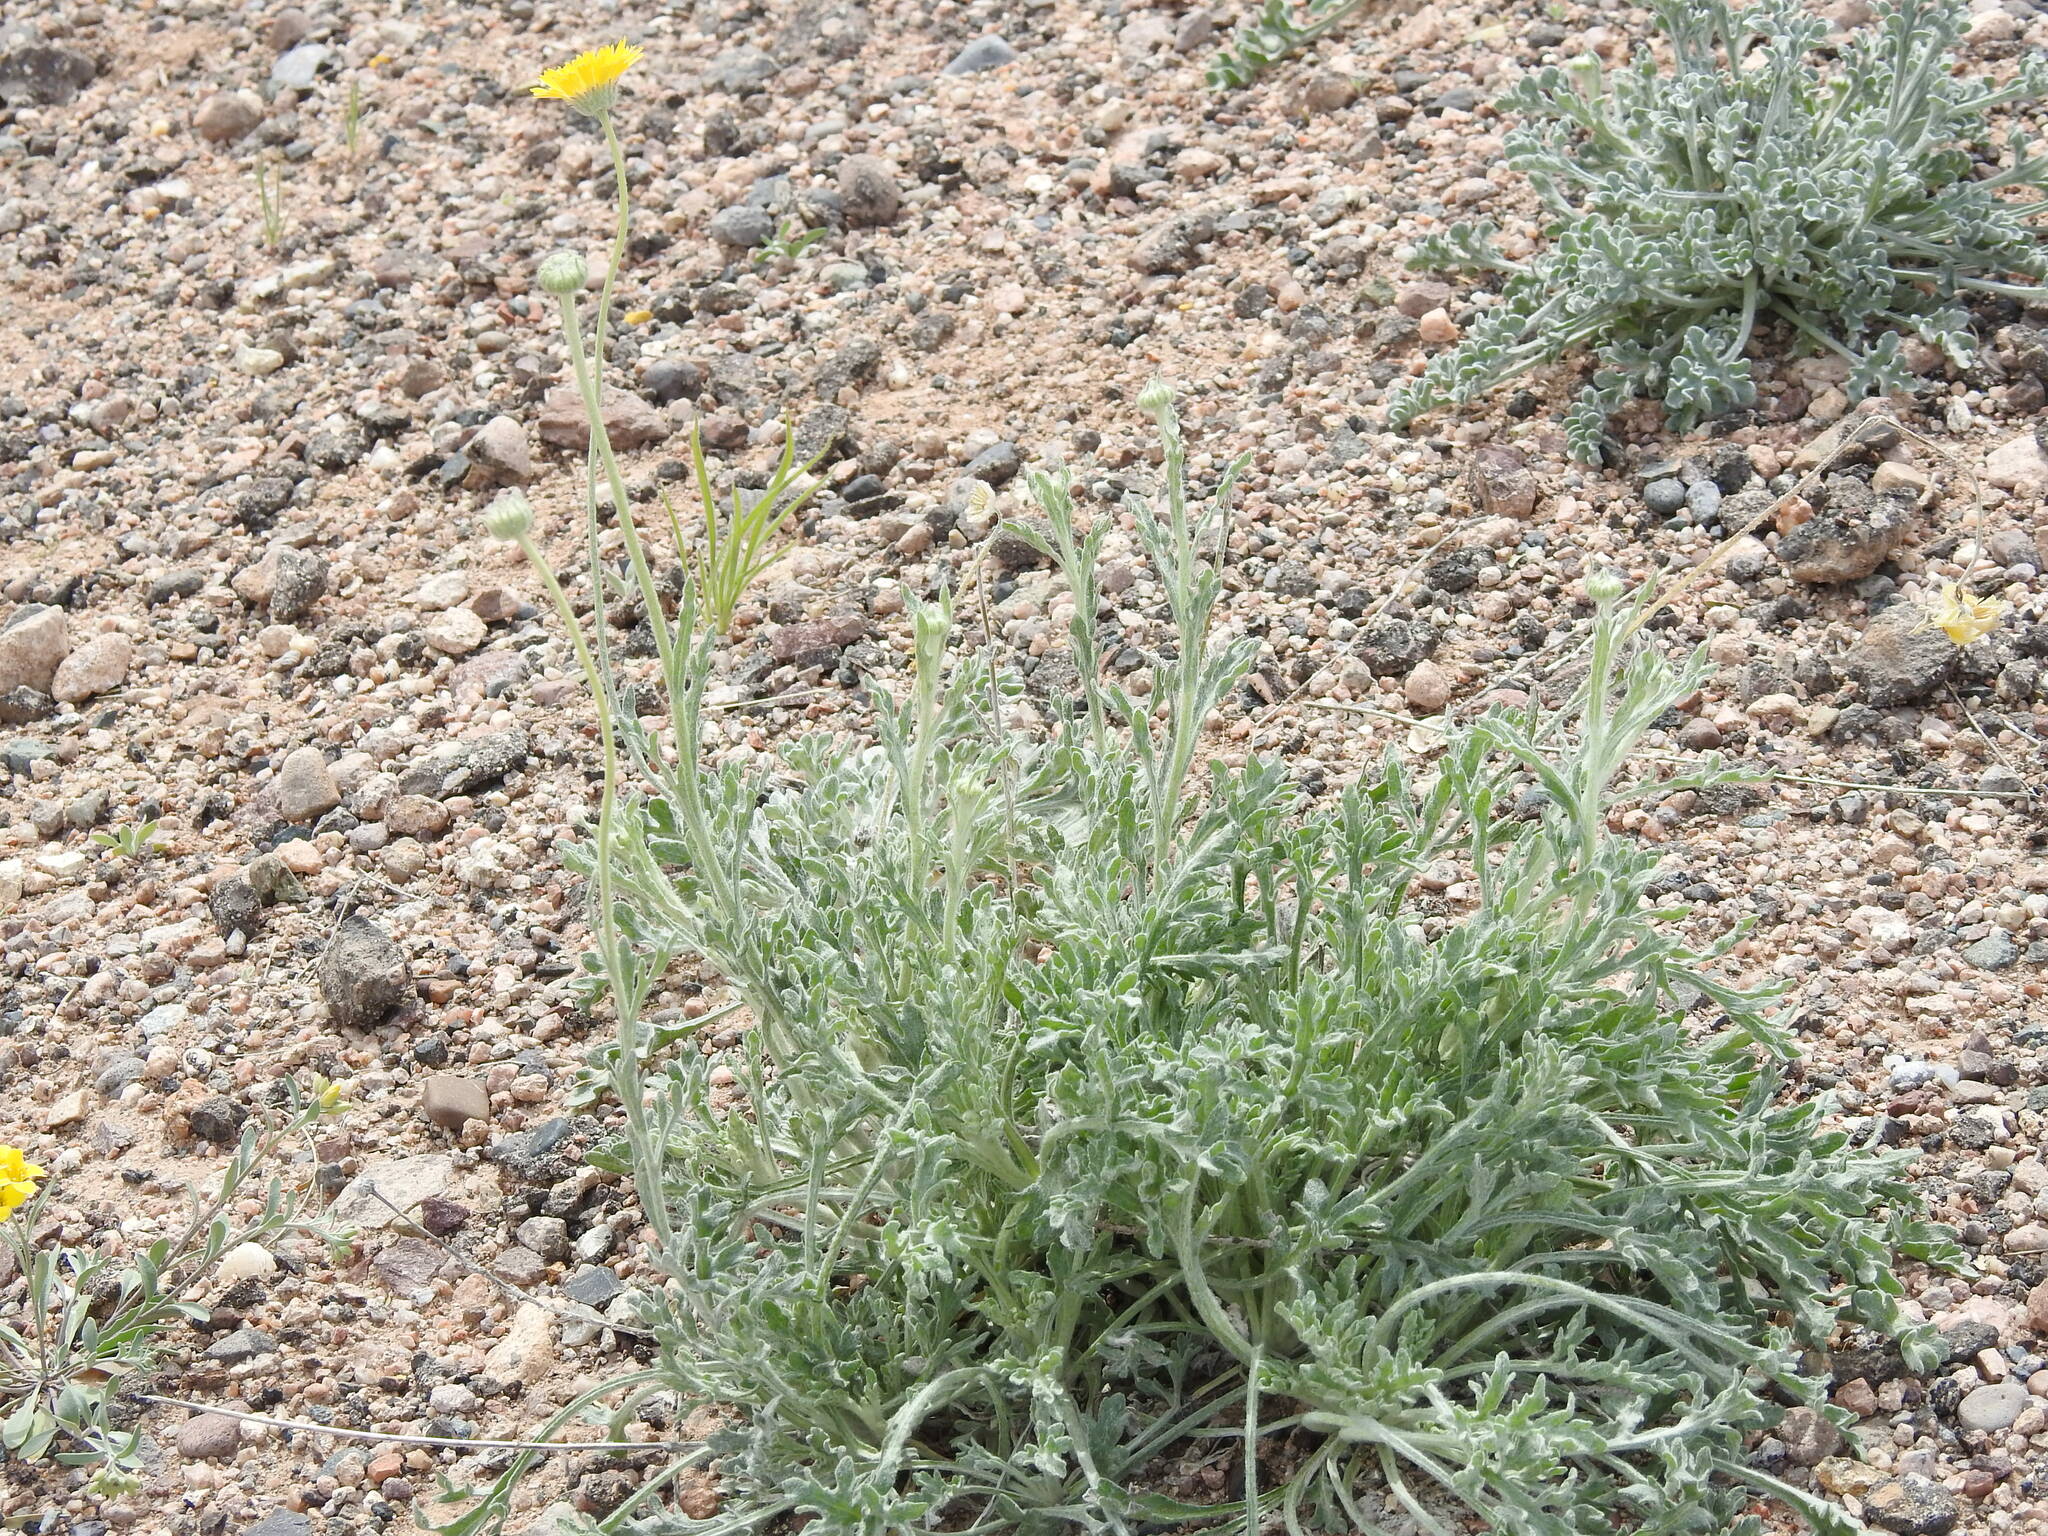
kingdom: Plantae
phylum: Tracheophyta
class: Magnoliopsida
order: Asterales
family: Asteraceae
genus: Baileya
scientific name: Baileya multiradiata
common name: Desert-marigold
